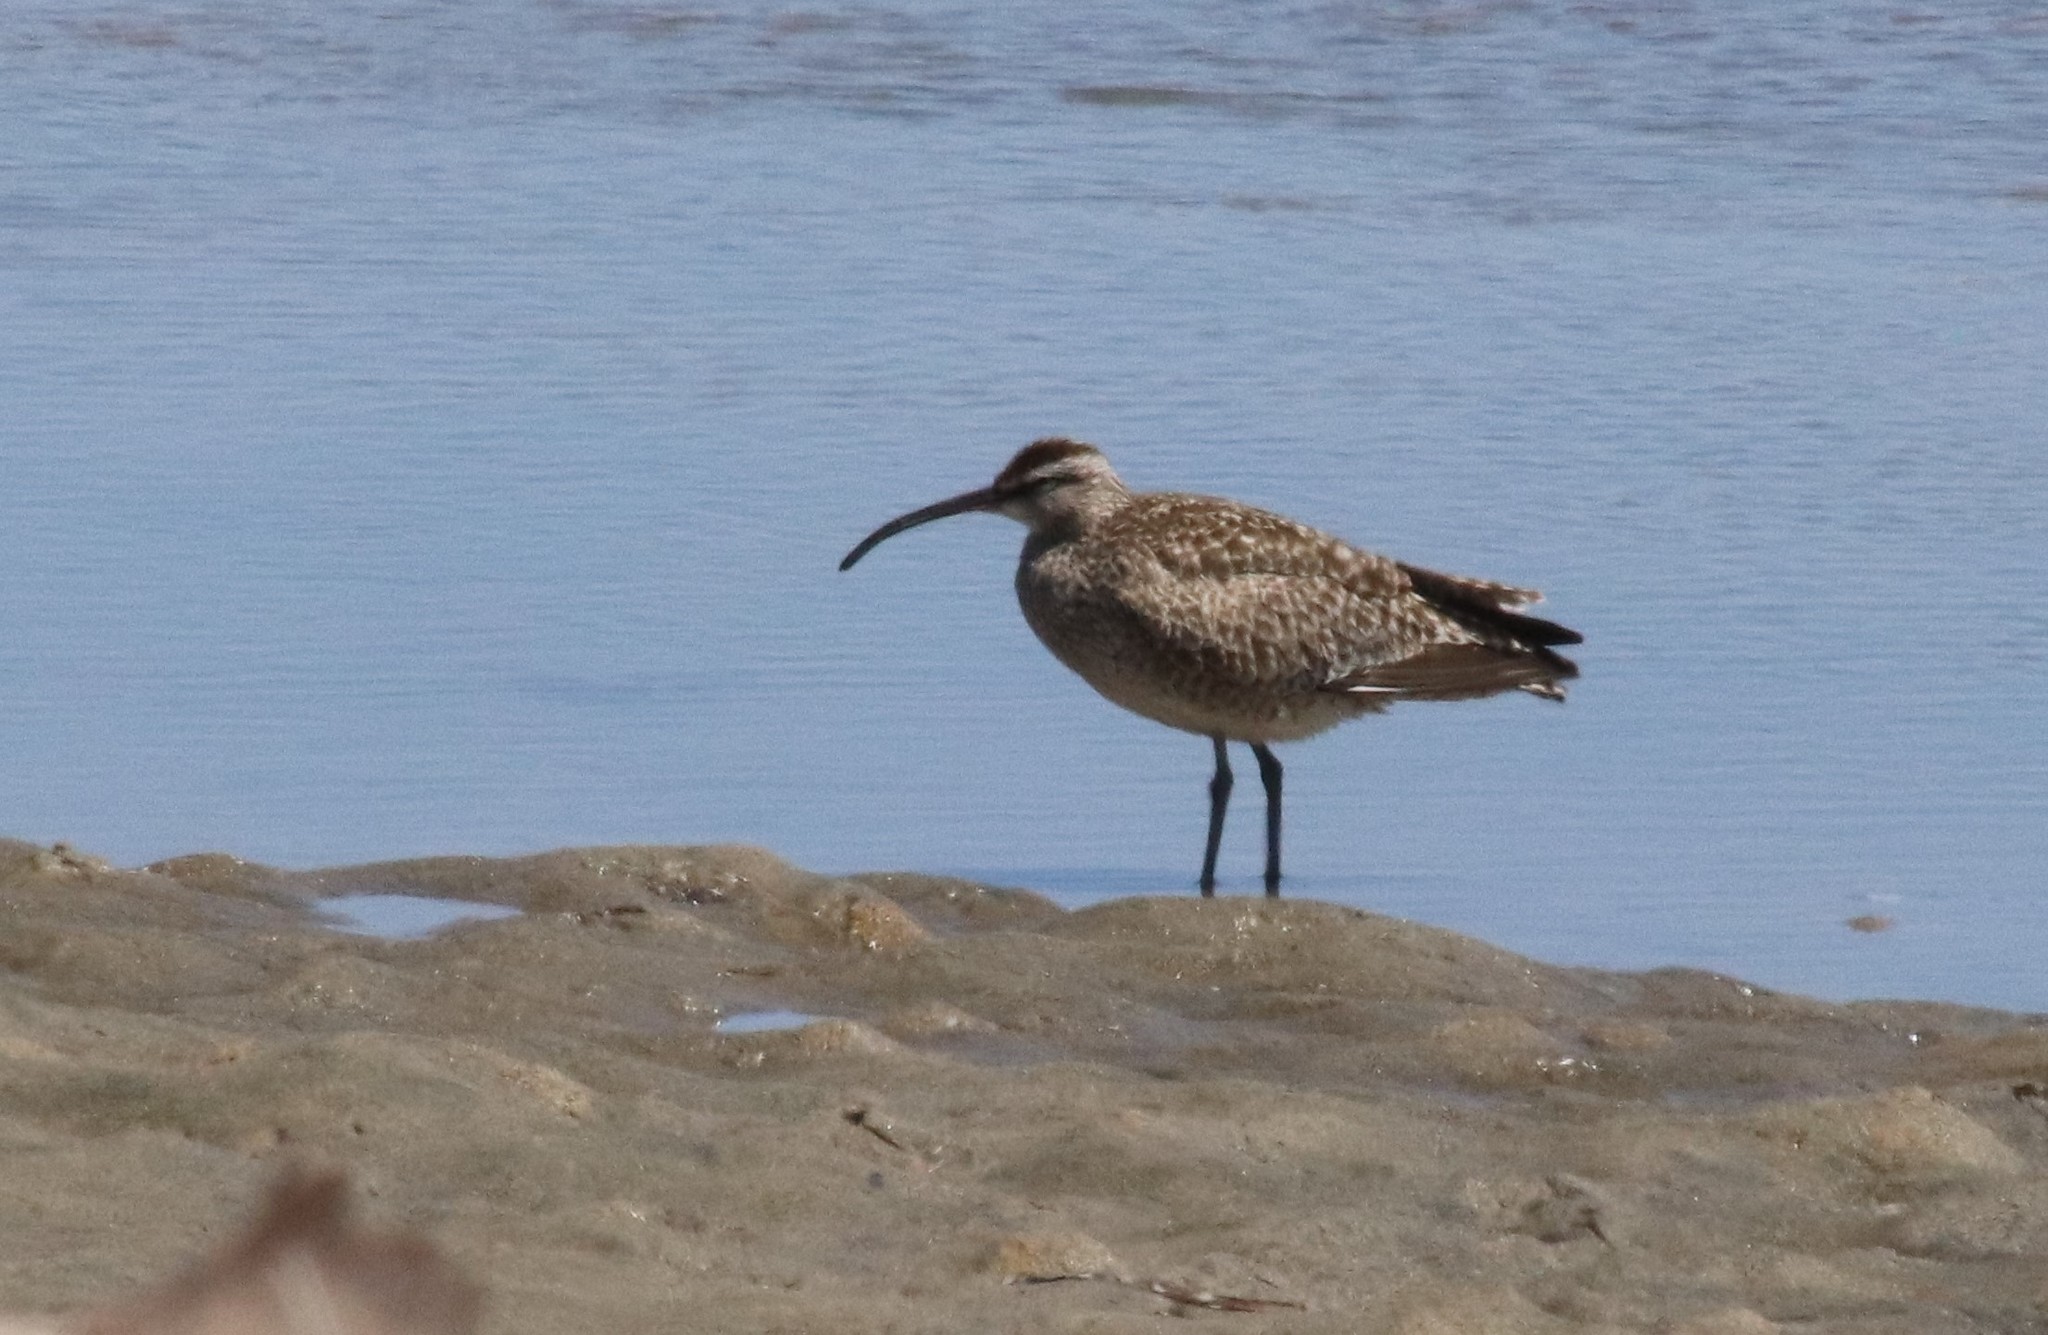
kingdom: Animalia
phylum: Chordata
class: Aves
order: Charadriiformes
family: Scolopacidae
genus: Numenius
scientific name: Numenius phaeopus
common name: Whimbrel
